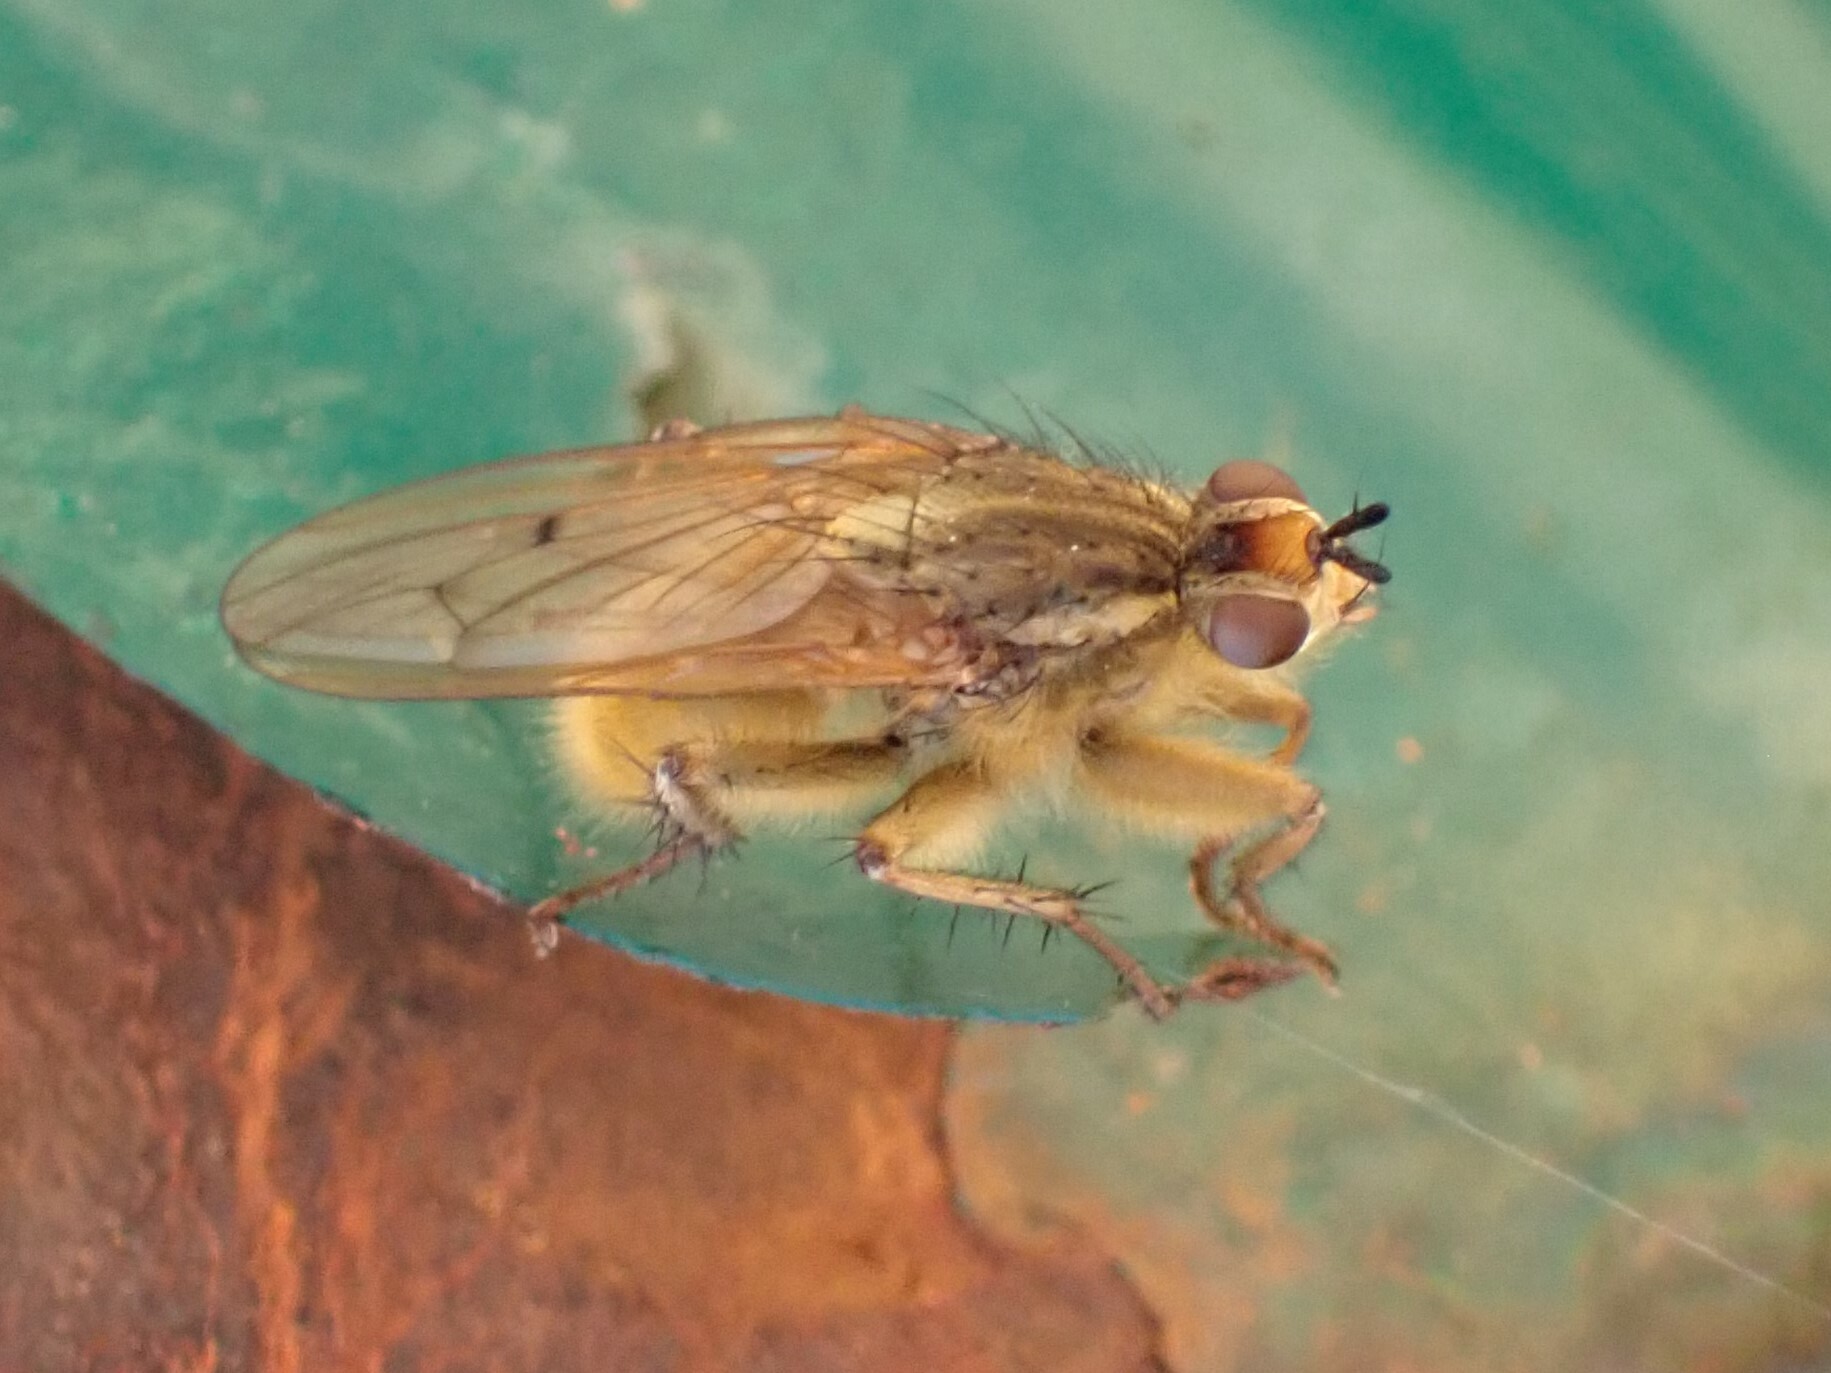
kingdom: Animalia
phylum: Arthropoda
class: Insecta
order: Diptera
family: Scathophagidae
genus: Scathophaga
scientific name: Scathophaga stercoraria
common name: Yellow dung fly
